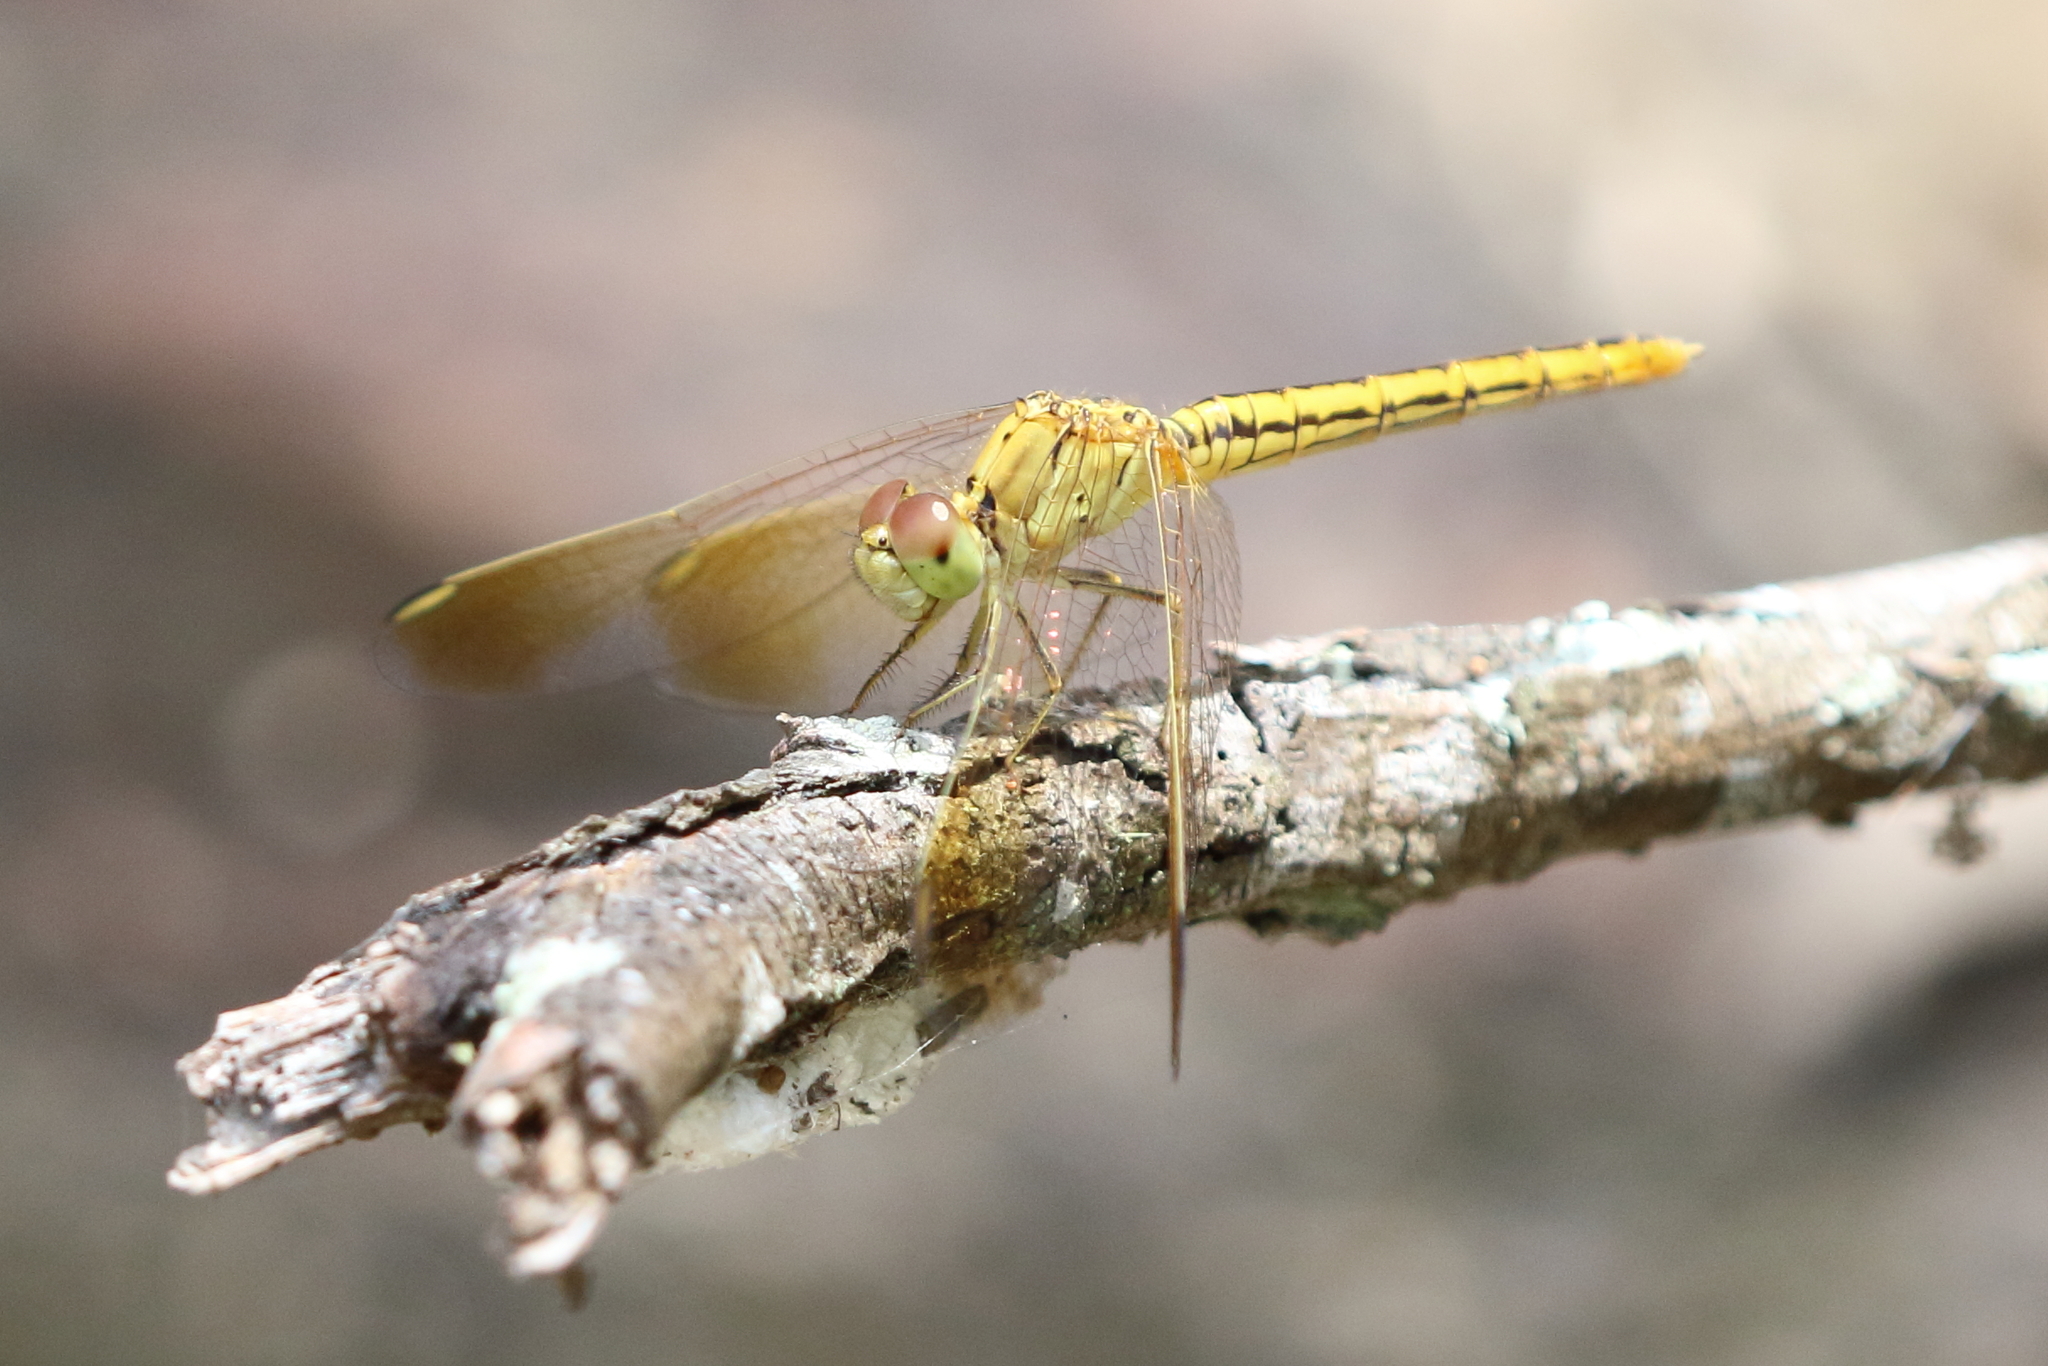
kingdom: Animalia
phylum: Arthropoda
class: Insecta
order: Odonata
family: Libellulidae
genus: Diplacodes
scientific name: Diplacodes haematodes
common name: Scarlet percher
